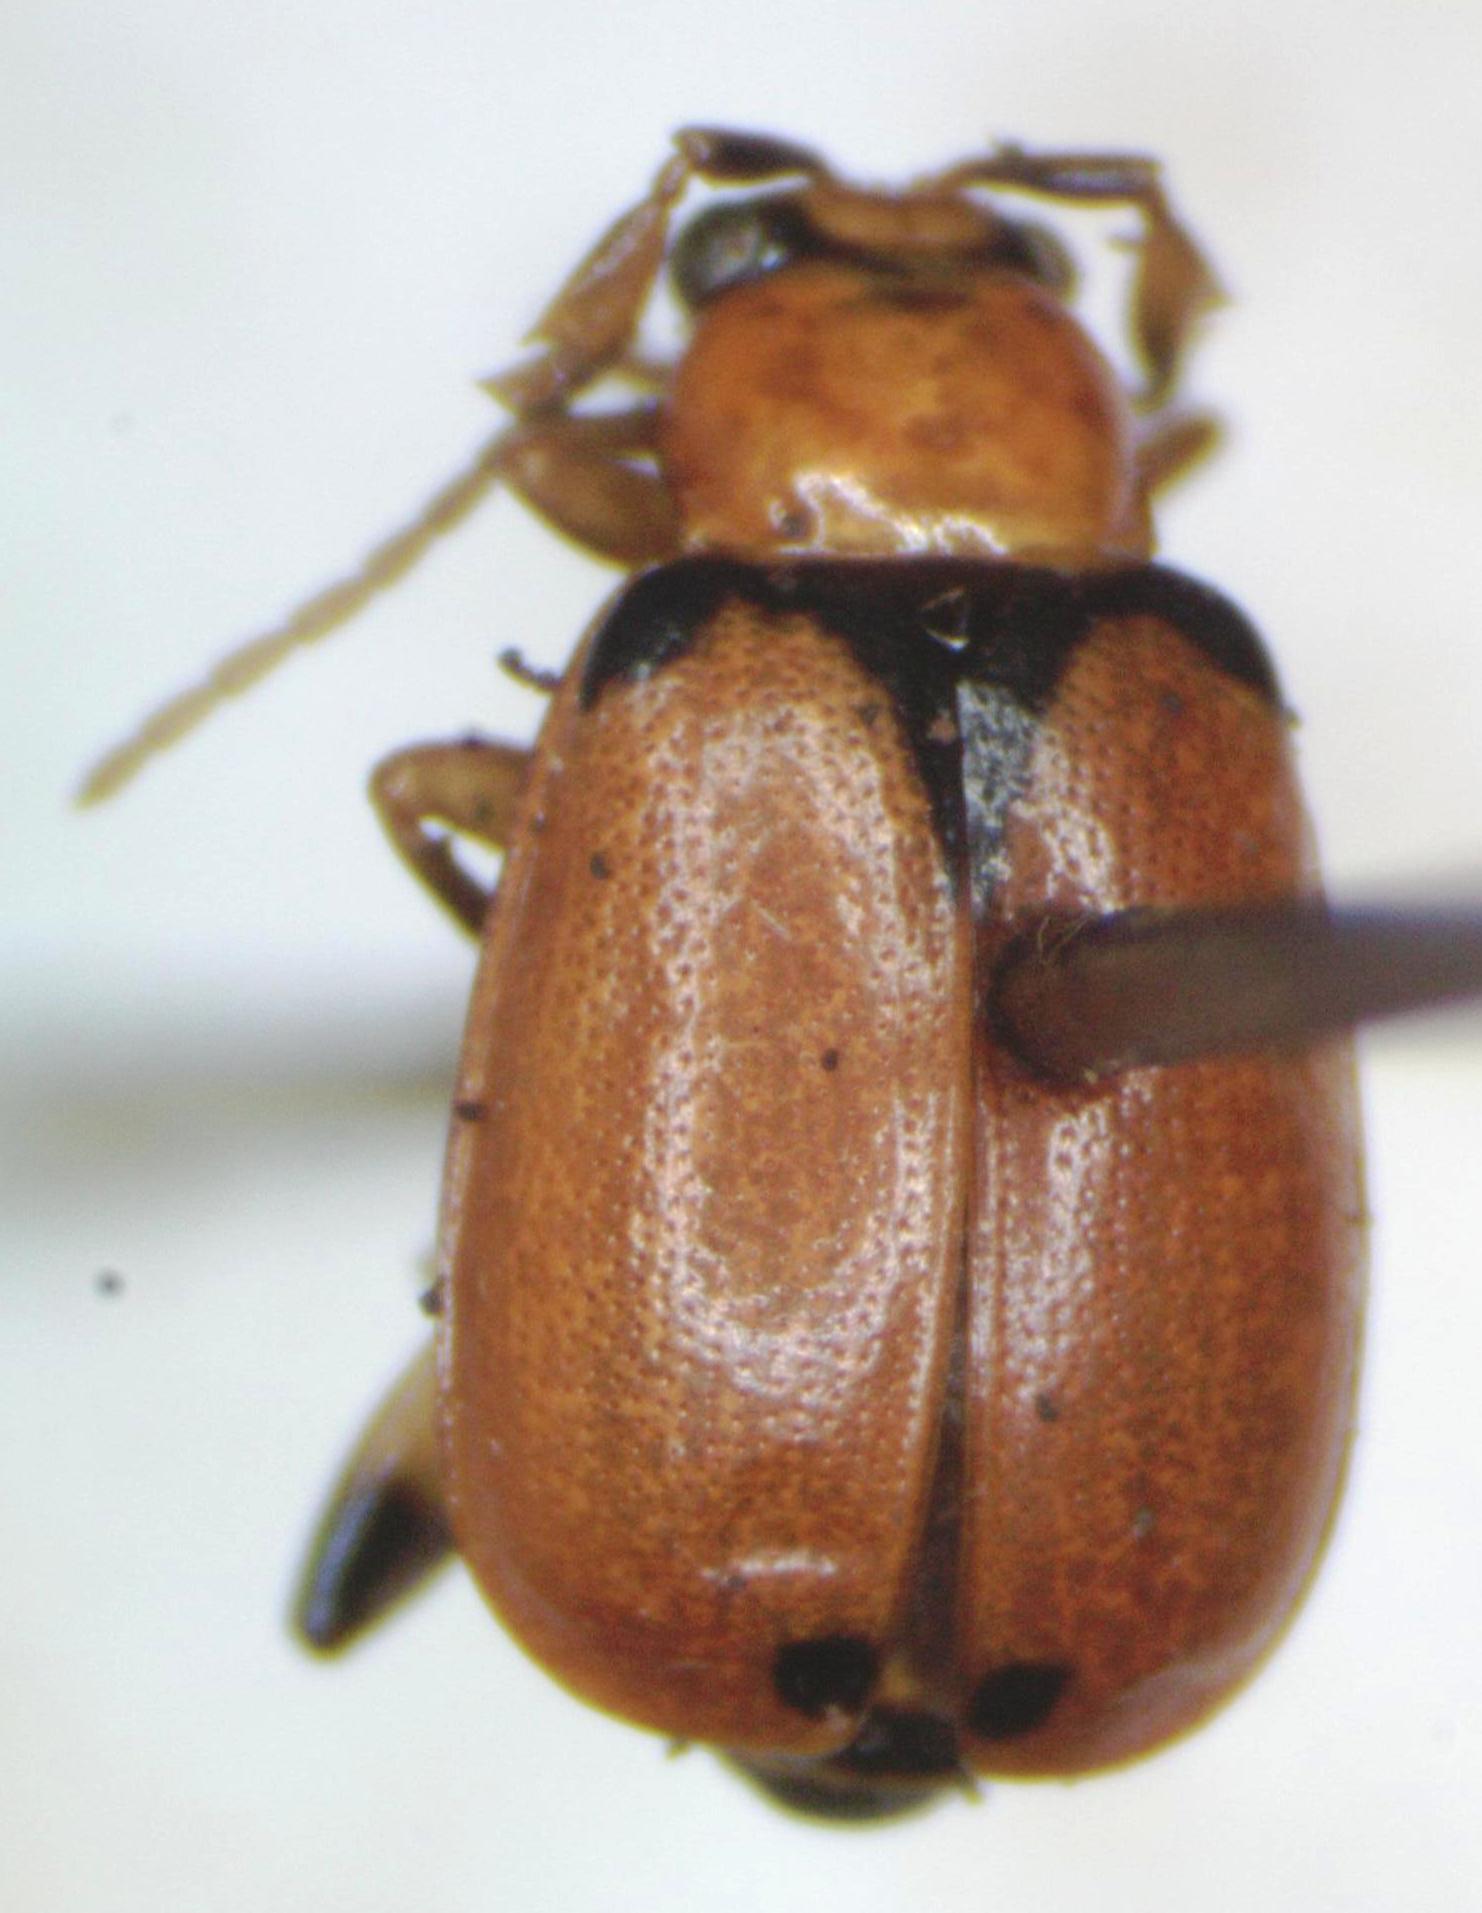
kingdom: Animalia
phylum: Arthropoda
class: Insecta
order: Coleoptera
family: Chrysomelidae
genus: Cerotoma
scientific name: Cerotoma atrofasciata
